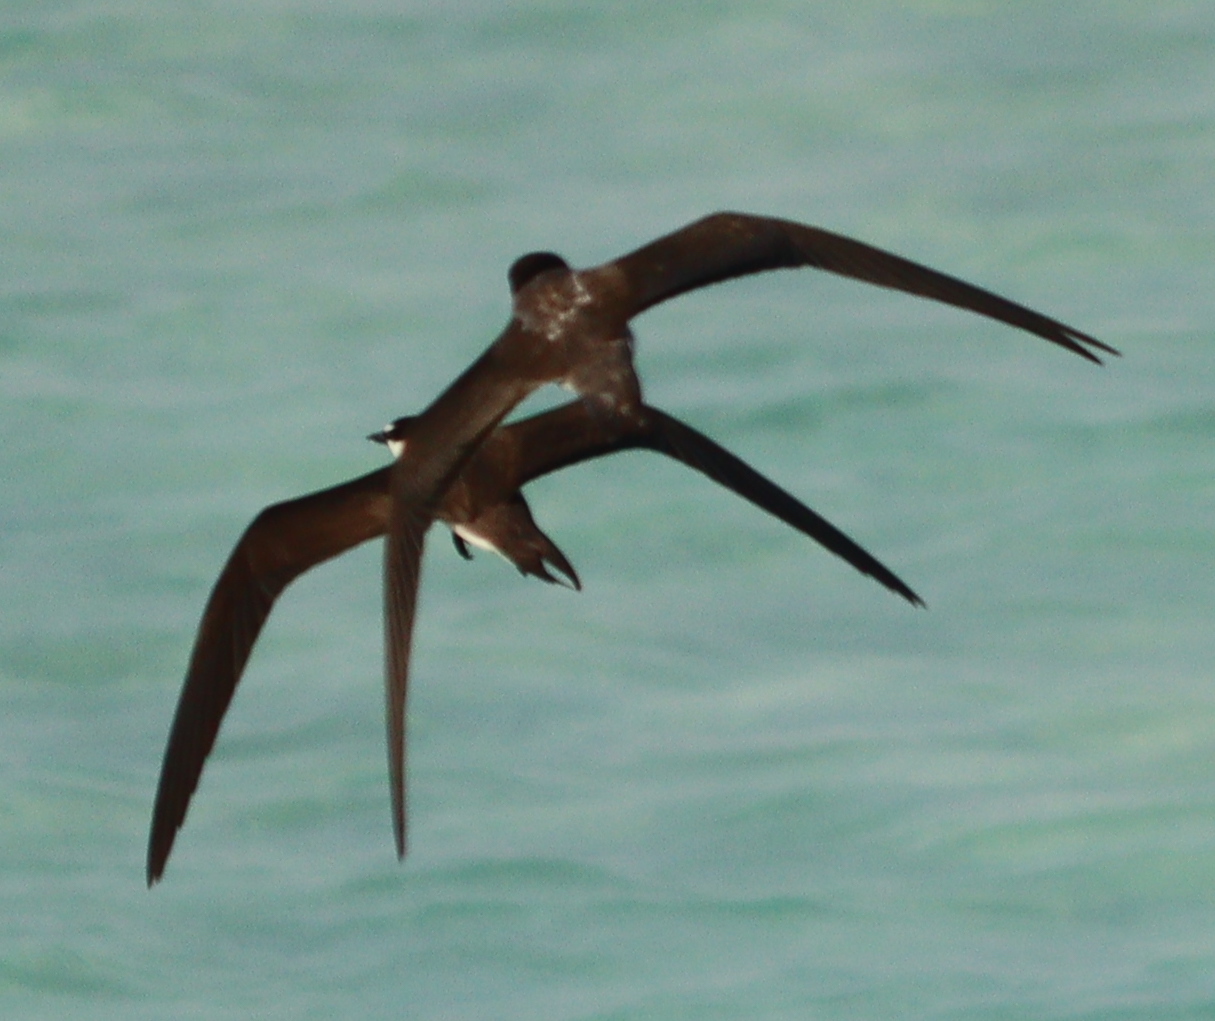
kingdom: Animalia
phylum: Chordata
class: Aves
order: Charadriiformes
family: Laridae
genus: Onychoprion
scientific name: Onychoprion anaethetus
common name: Bridled tern
